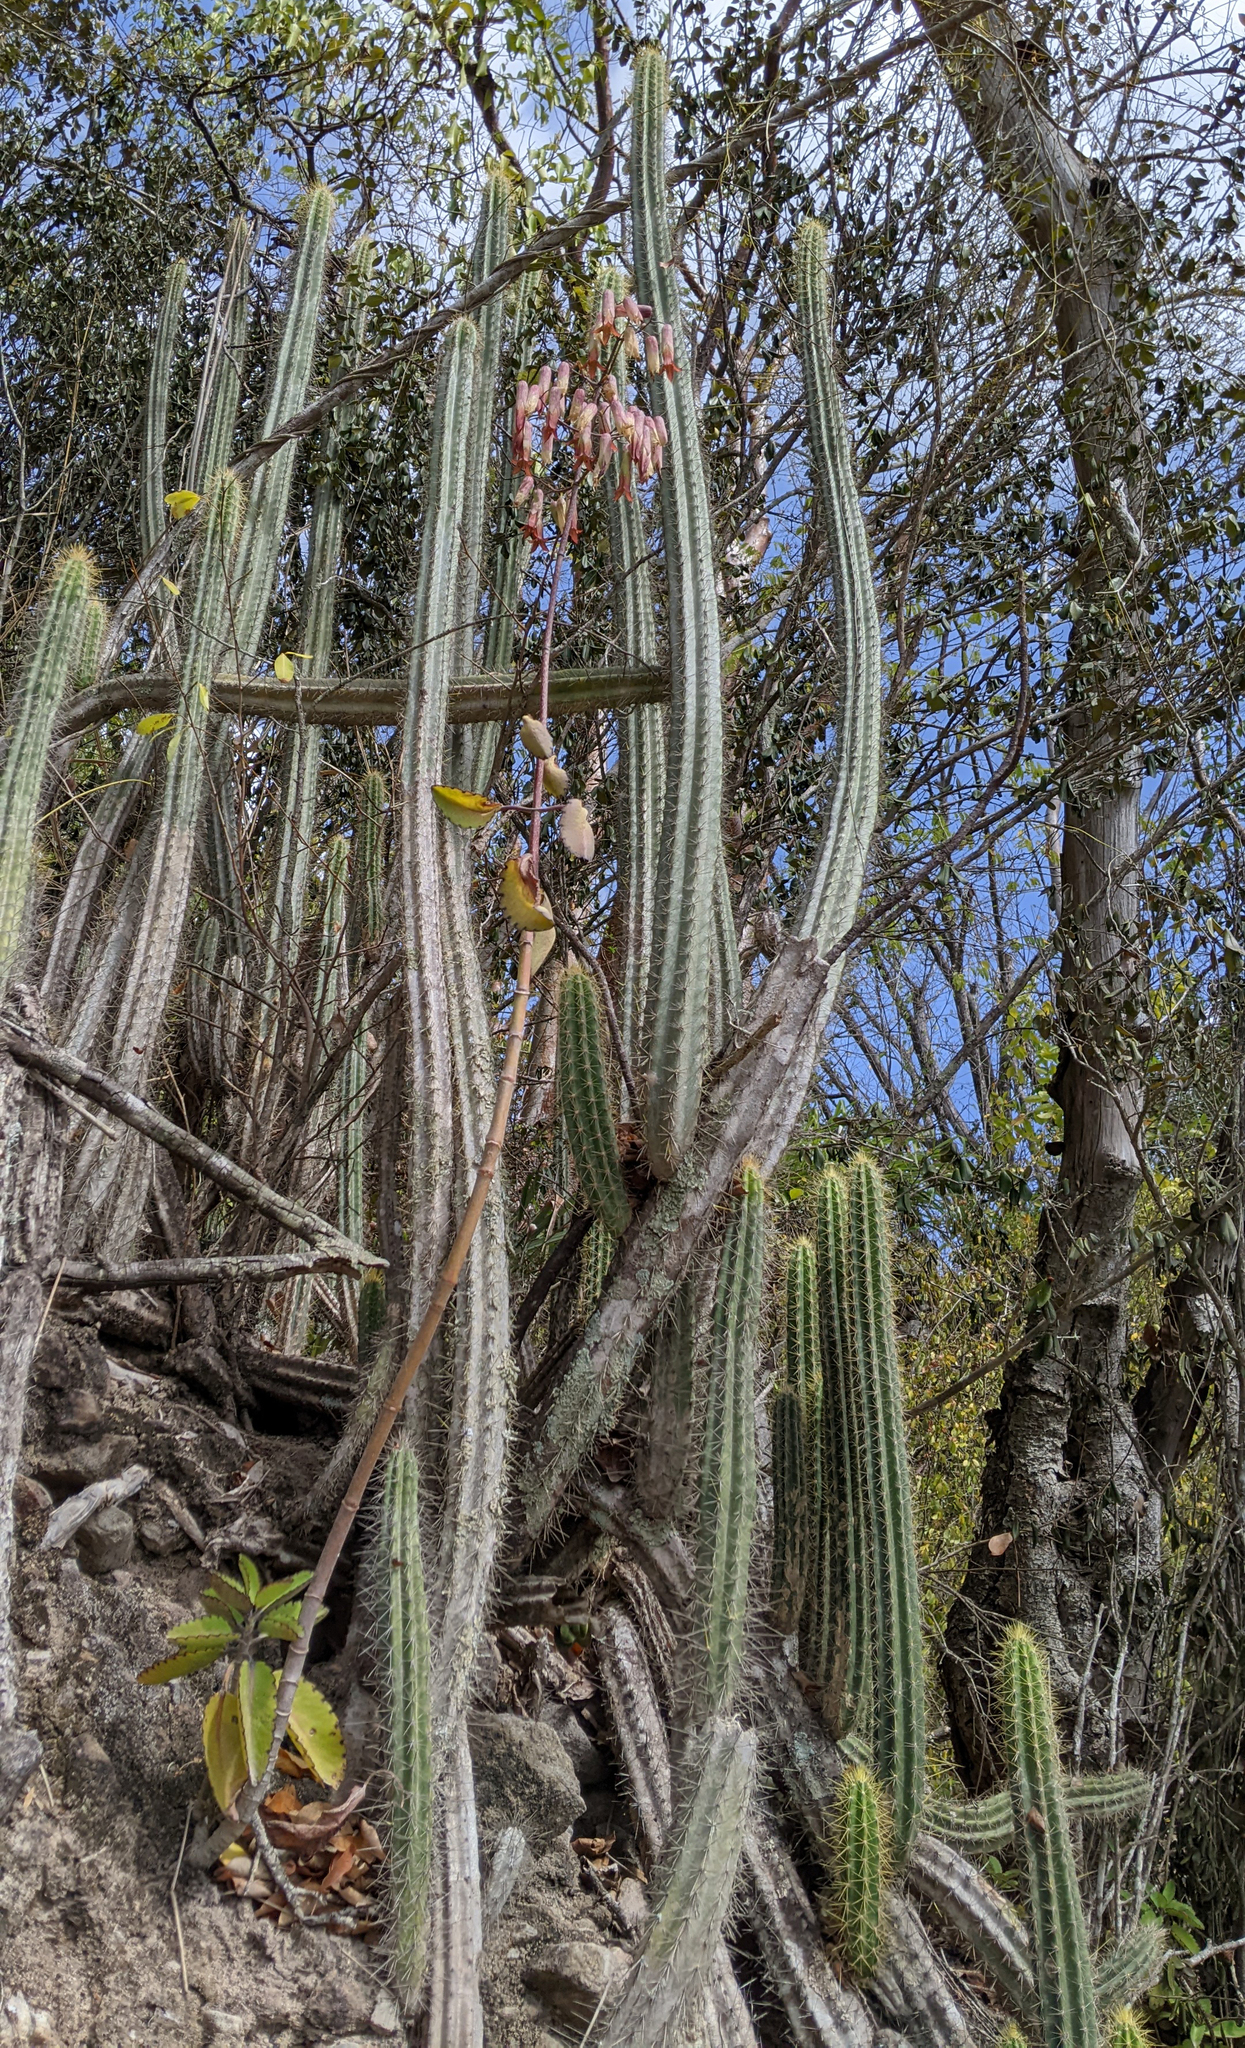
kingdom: Plantae
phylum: Tracheophyta
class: Magnoliopsida
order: Caryophyllales
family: Cactaceae
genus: Pilosocereus
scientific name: Pilosocereus curtisii
